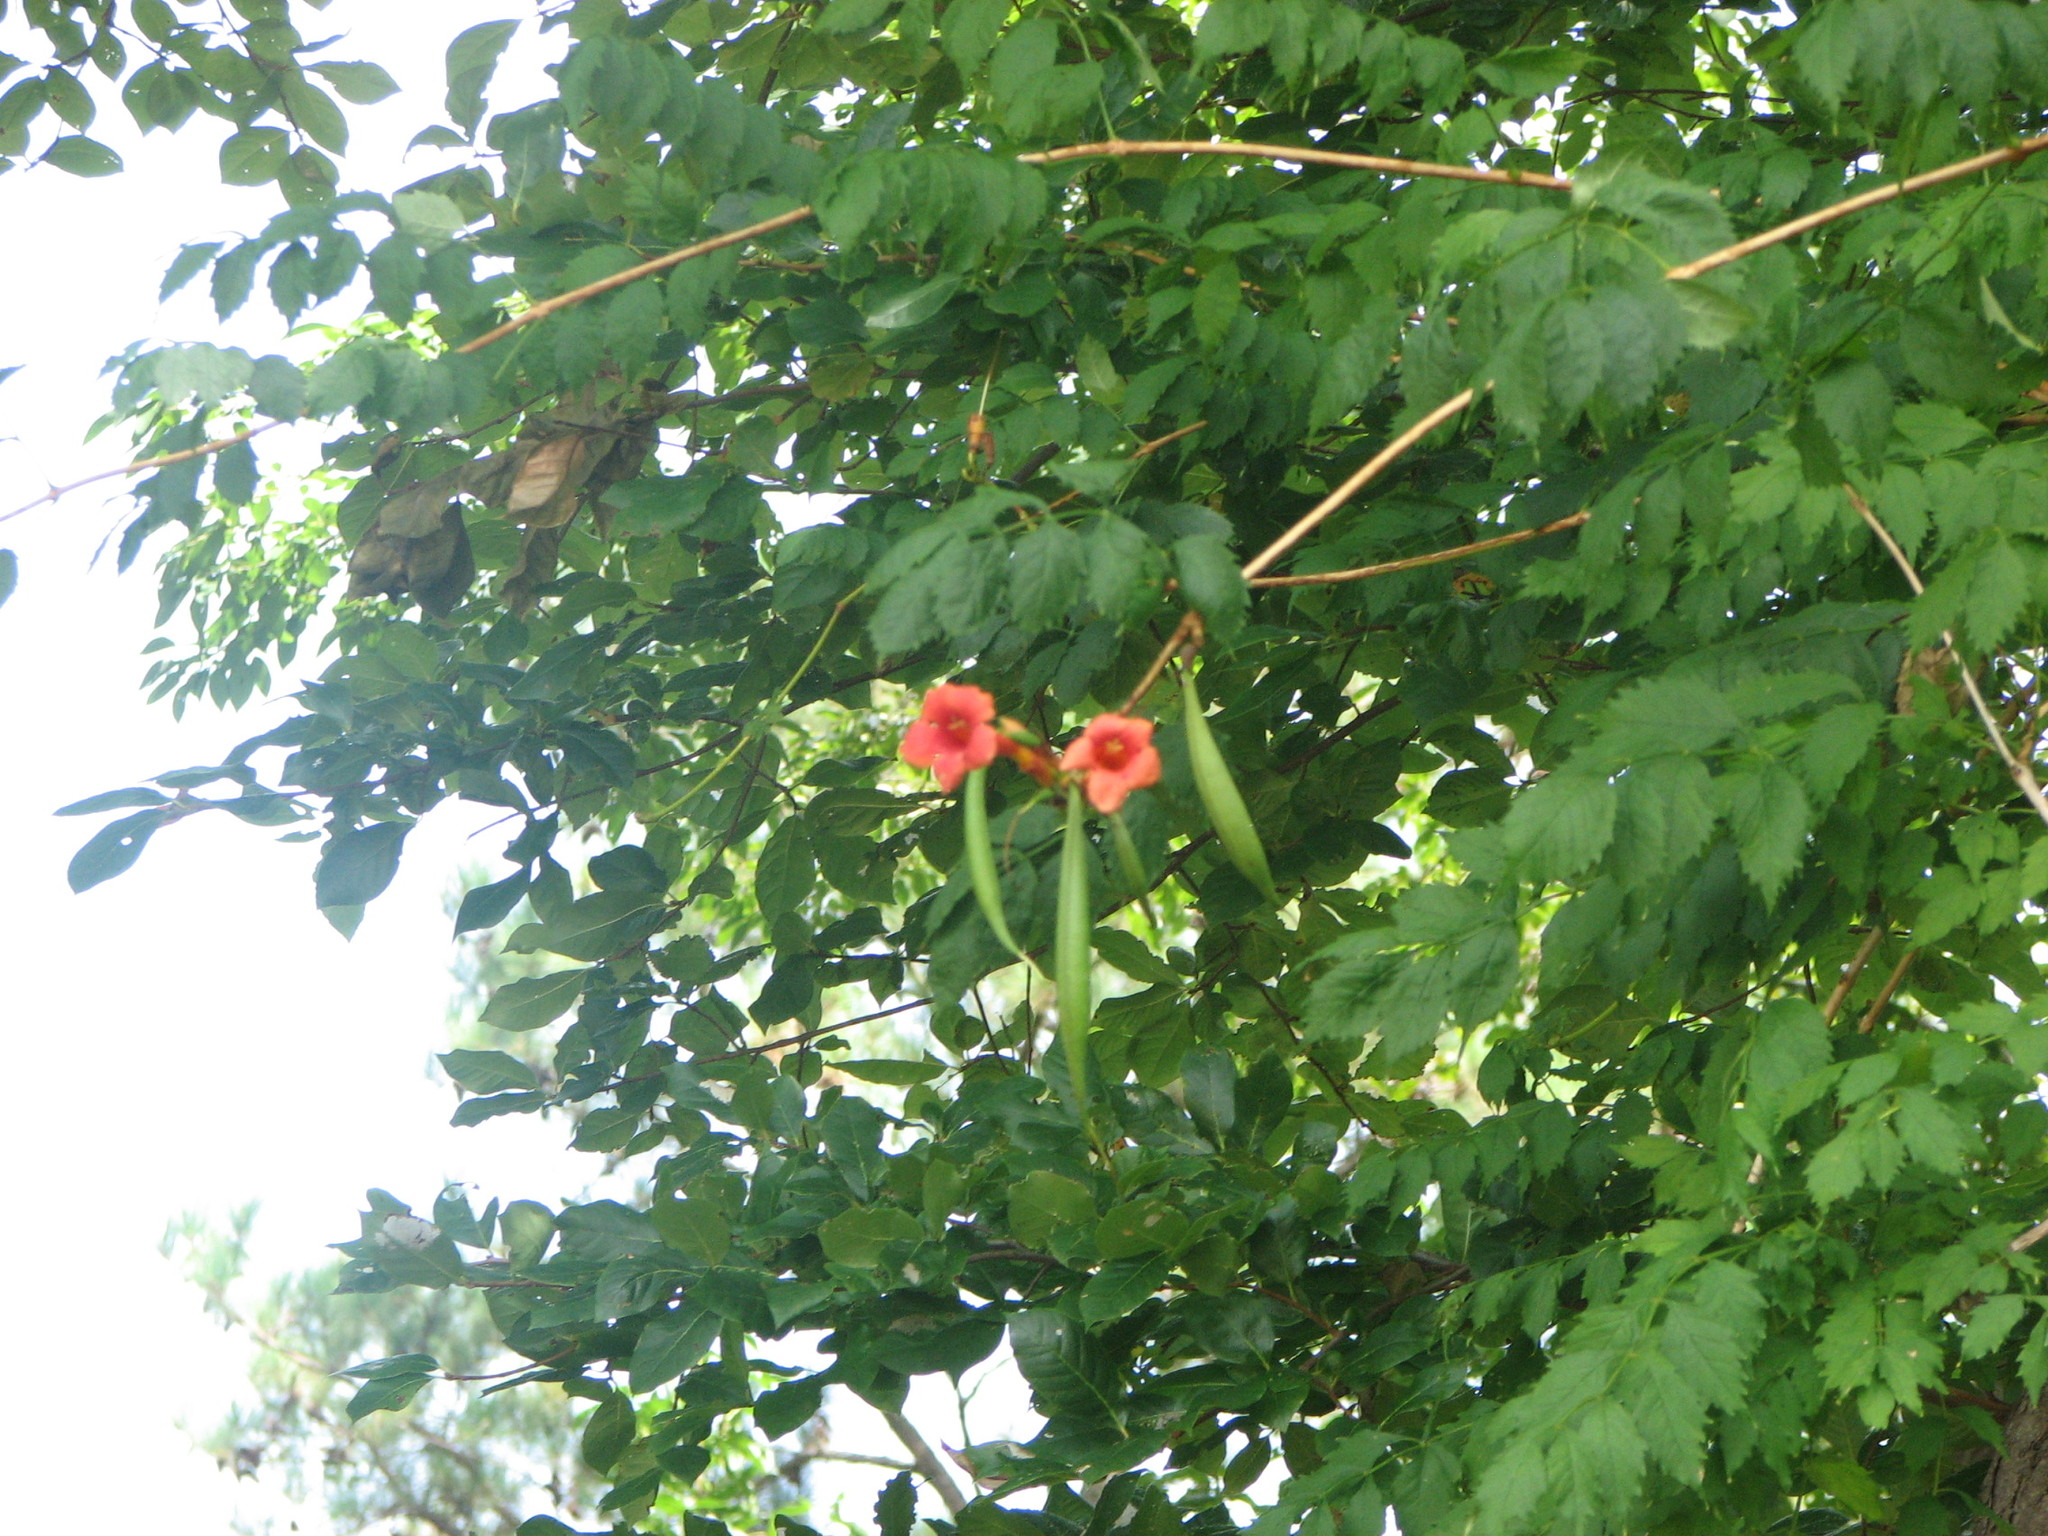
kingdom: Plantae
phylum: Tracheophyta
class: Magnoliopsida
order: Lamiales
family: Bignoniaceae
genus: Campsis
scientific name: Campsis radicans
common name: Trumpet-creeper
